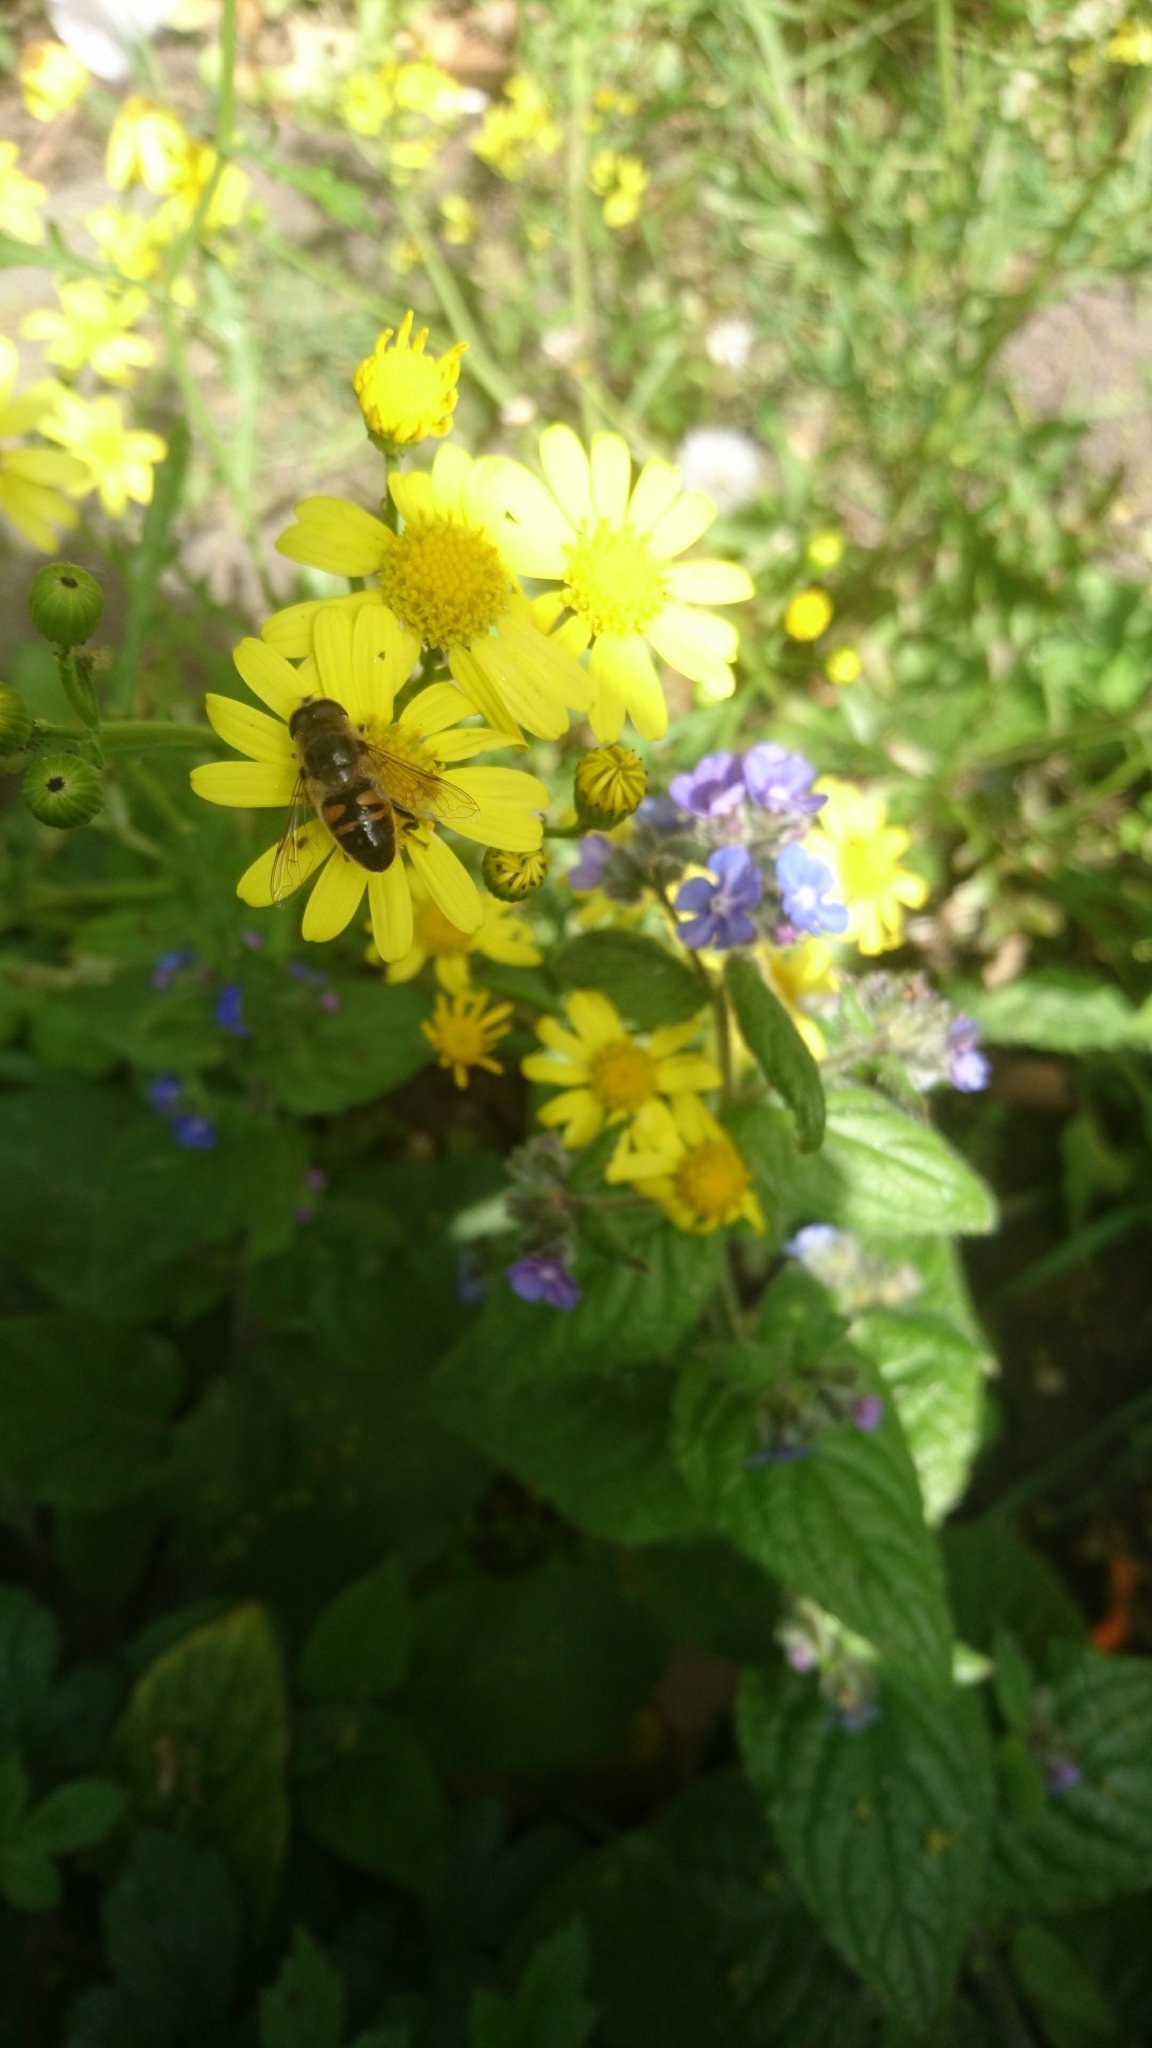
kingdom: Animalia
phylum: Arthropoda
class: Insecta
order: Diptera
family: Syrphidae
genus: Eristalis
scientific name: Eristalis tenax
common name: Drone fly
